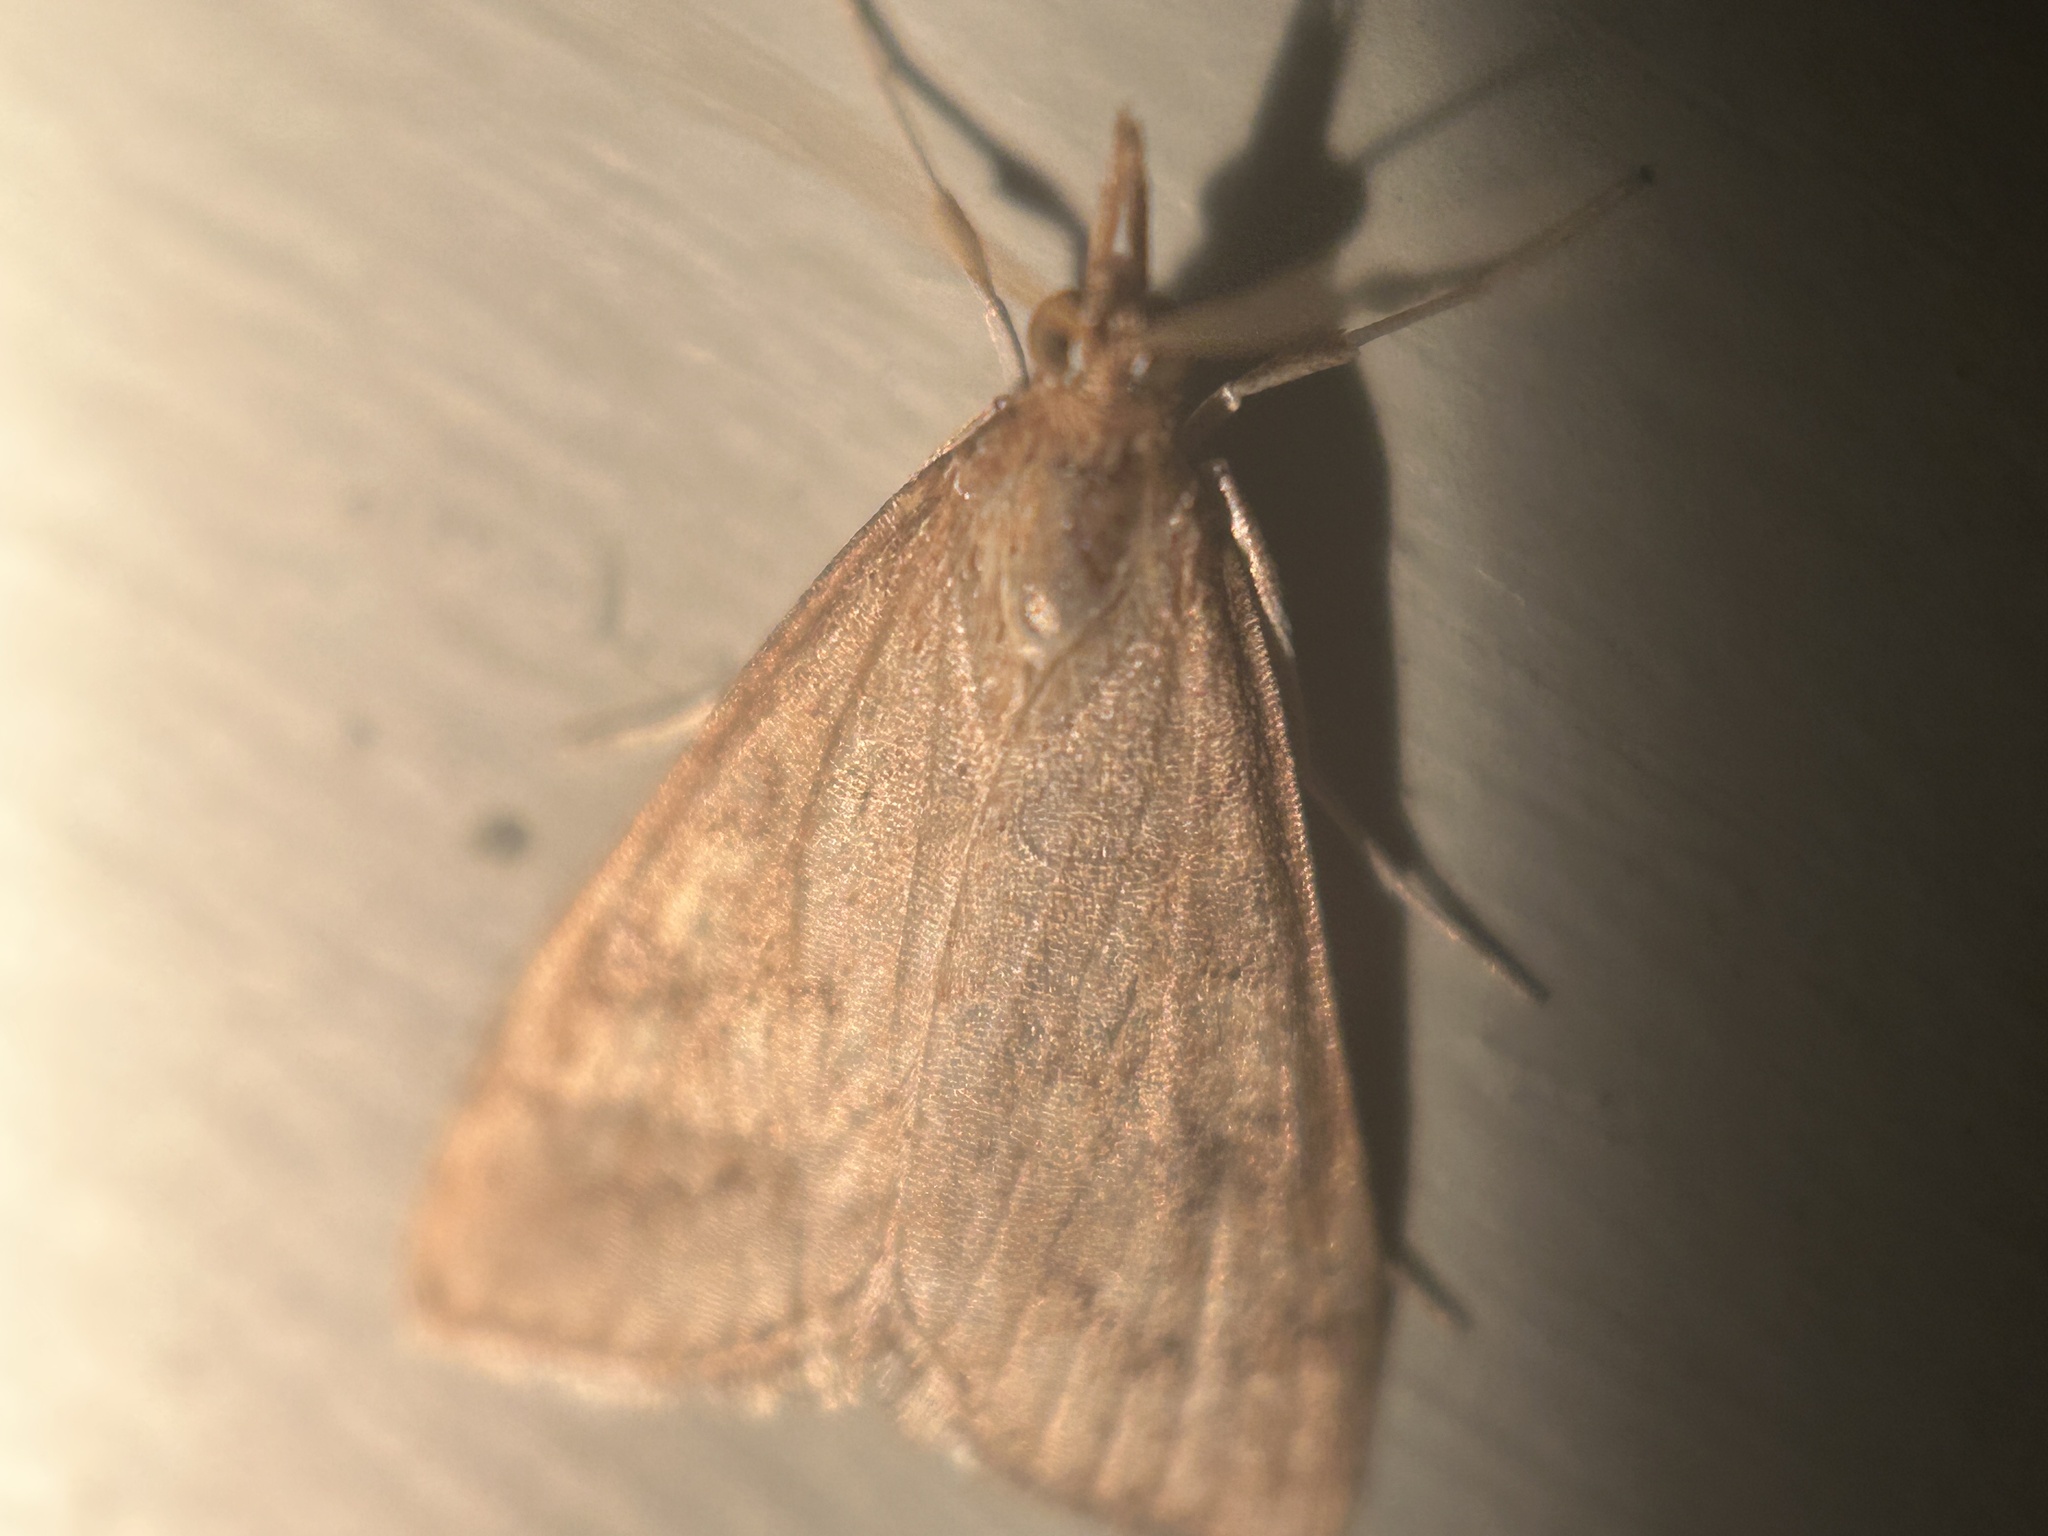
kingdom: Animalia
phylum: Arthropoda
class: Insecta
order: Lepidoptera
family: Crambidae
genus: Udea
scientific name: Udea rubigalis
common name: Celery leaftier moth
